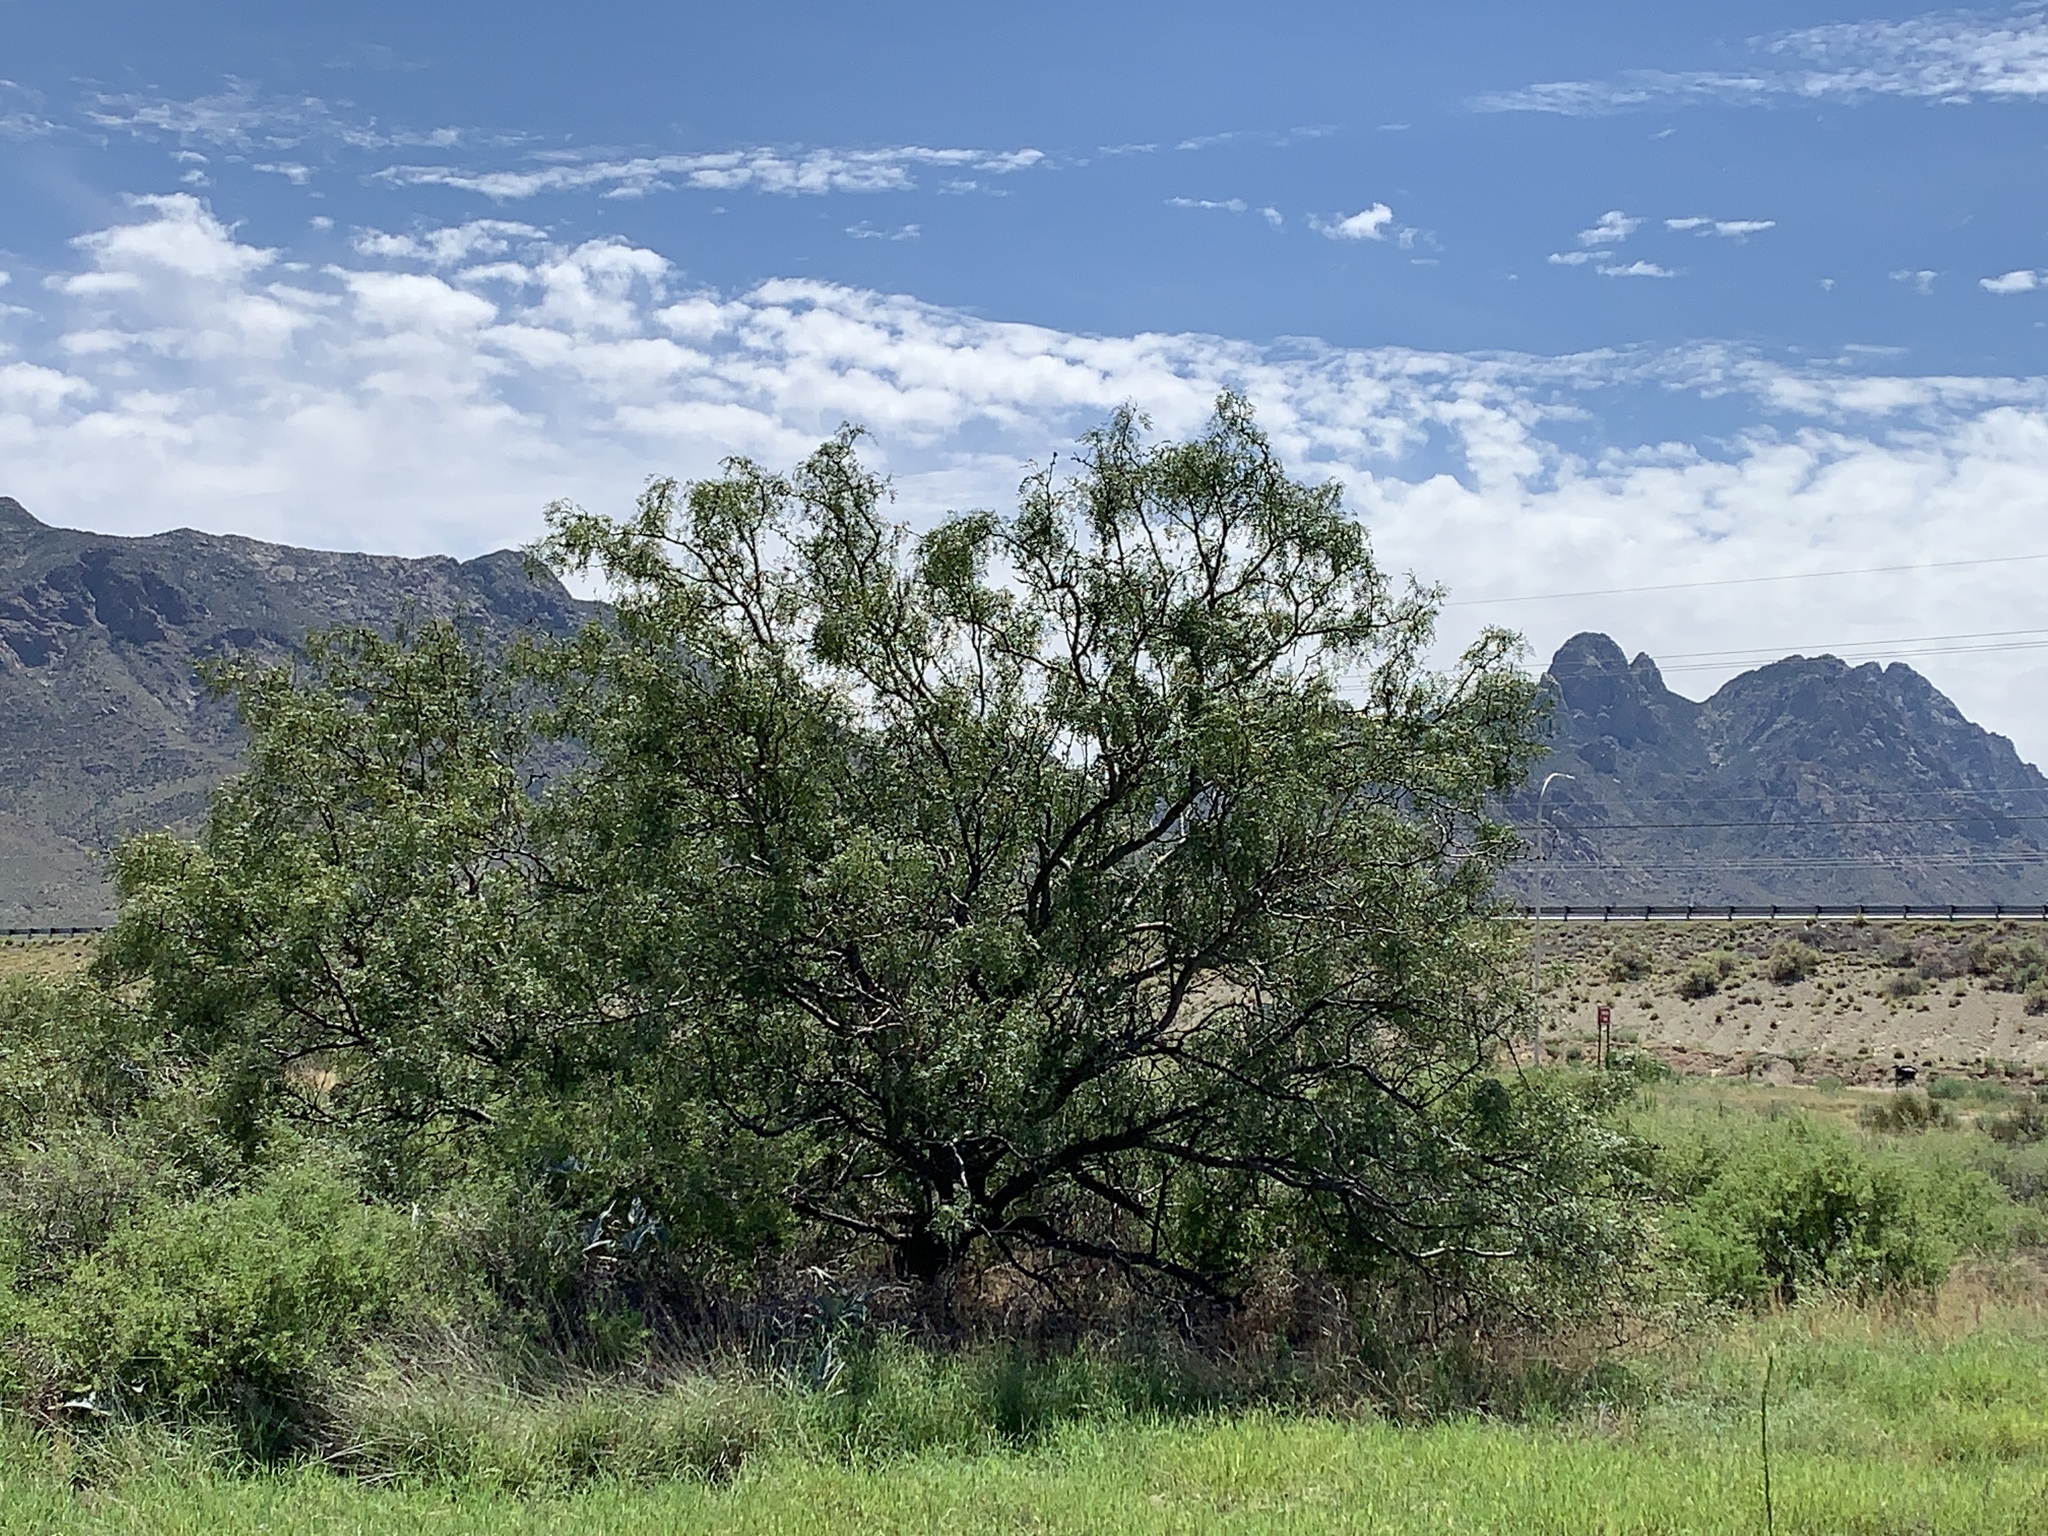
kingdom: Plantae
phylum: Tracheophyta
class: Magnoliopsida
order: Fabales
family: Fabaceae
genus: Prosopis
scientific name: Prosopis glandulosa
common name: Honey mesquite
